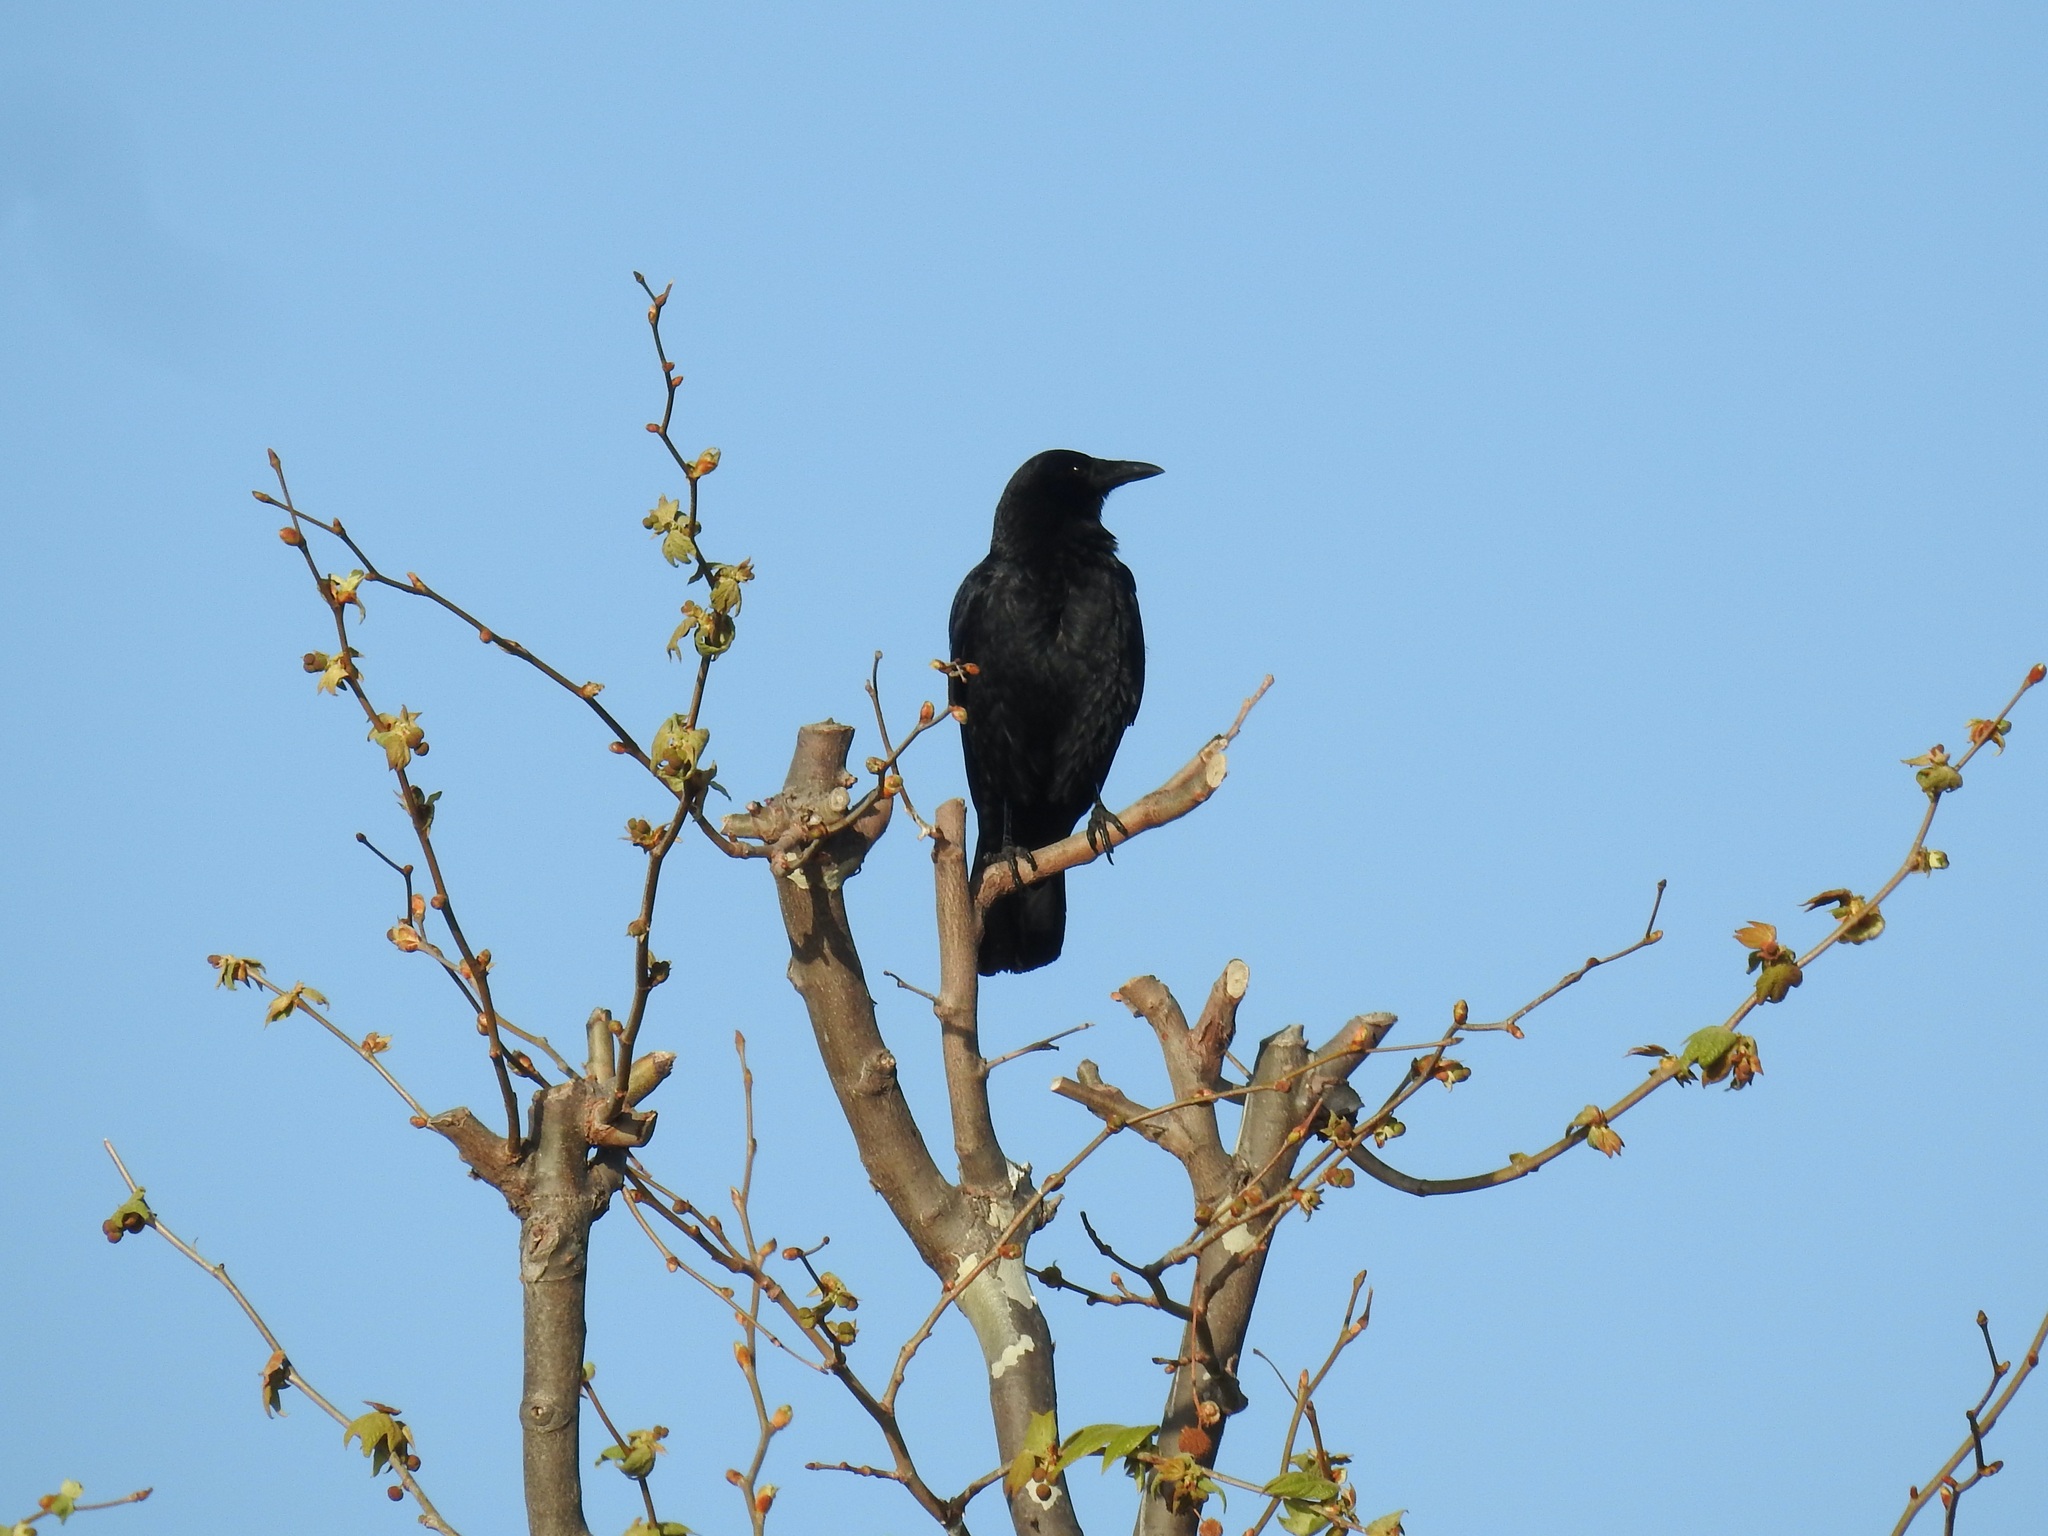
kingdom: Animalia
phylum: Chordata
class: Aves
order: Passeriformes
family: Corvidae
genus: Corvus
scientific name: Corvus brachyrhynchos
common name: American crow
